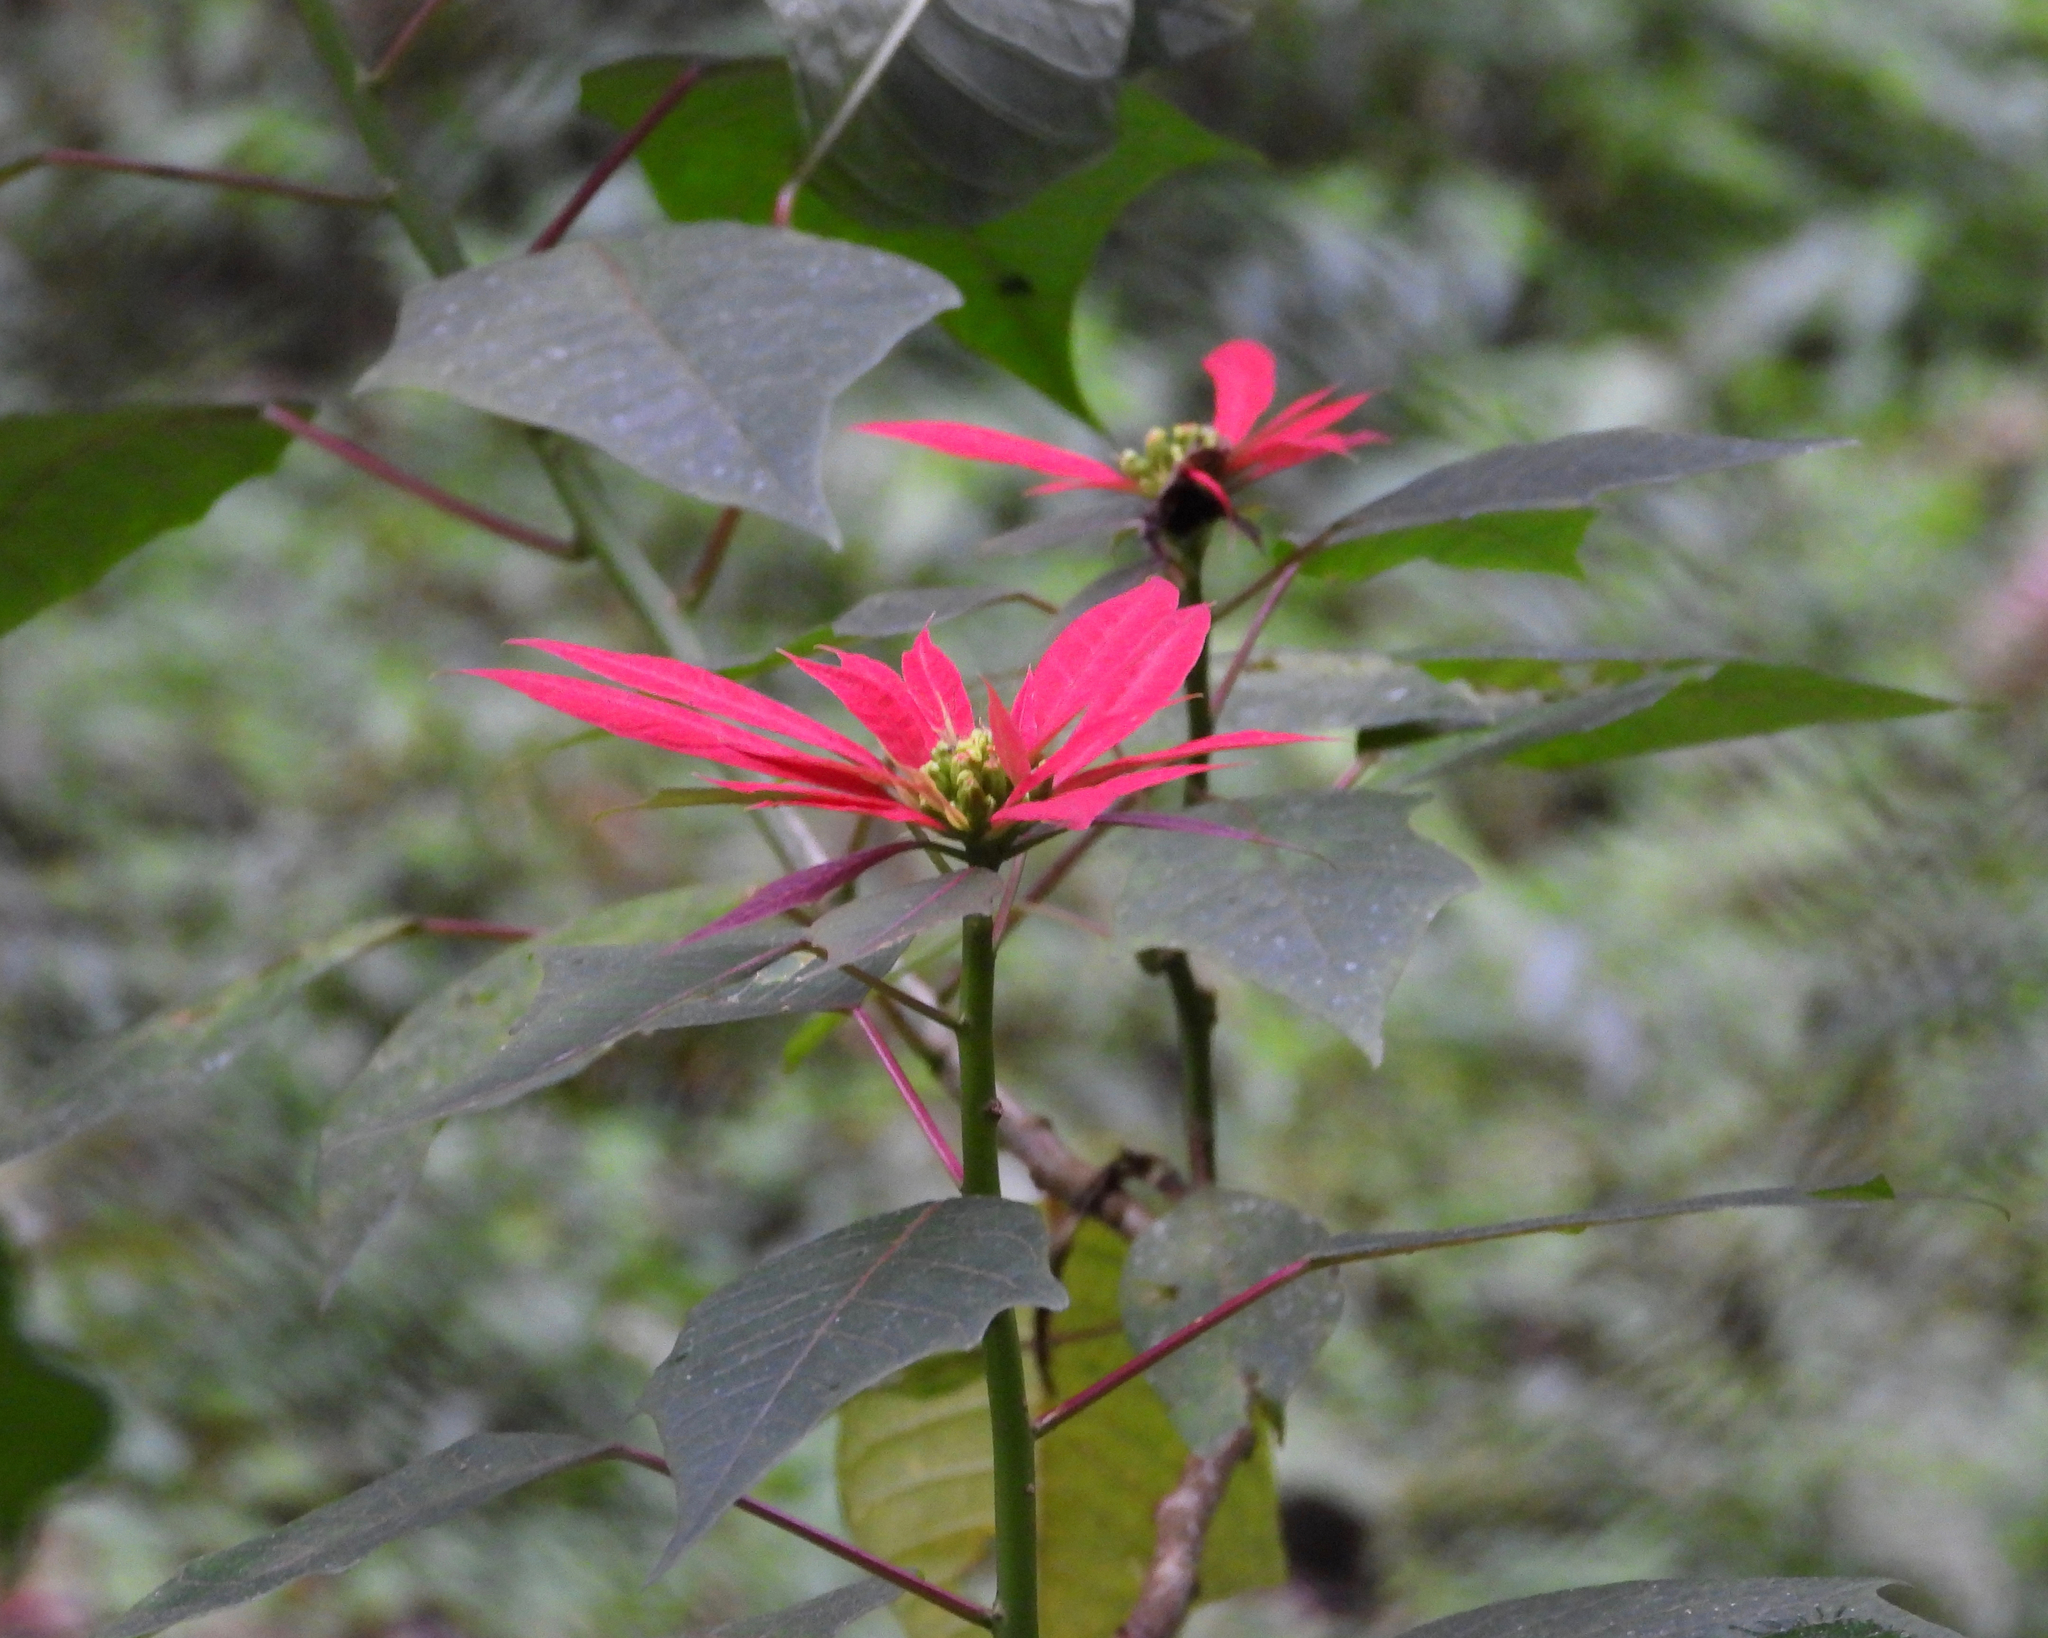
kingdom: Plantae
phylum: Tracheophyta
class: Magnoliopsida
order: Malpighiales
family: Euphorbiaceae
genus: Euphorbia
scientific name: Euphorbia pulcherrima
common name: Christmas-flower
